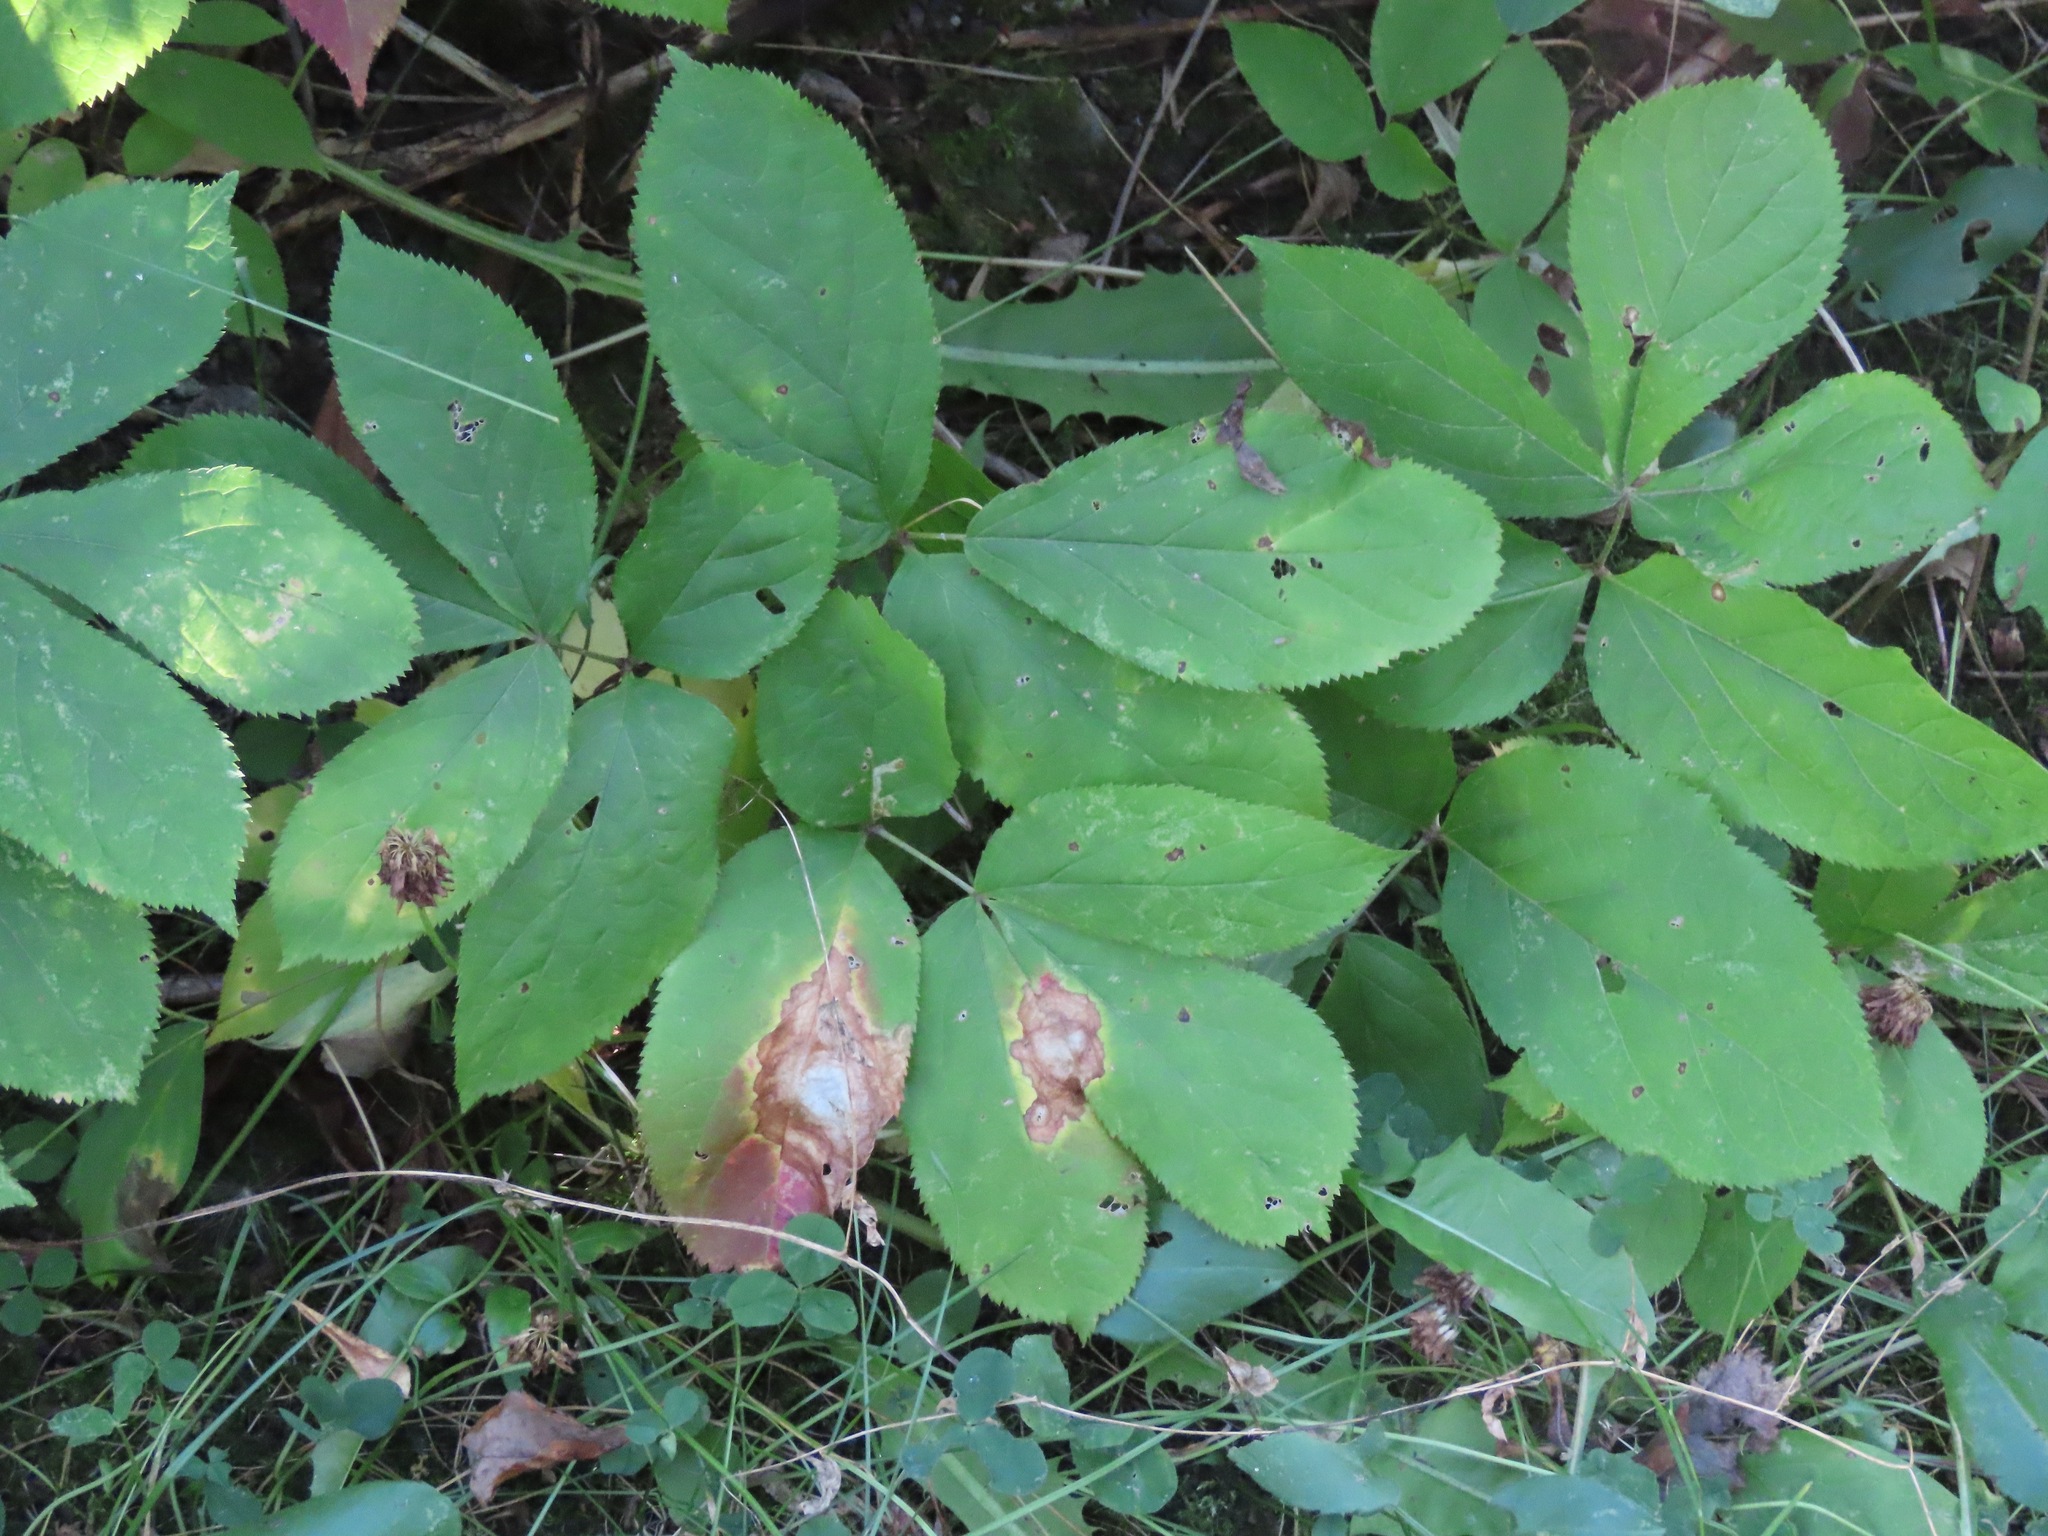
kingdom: Plantae
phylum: Tracheophyta
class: Magnoliopsida
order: Apiales
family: Araliaceae
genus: Aralia
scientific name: Aralia nudicaulis
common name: Wild sarsaparilla
